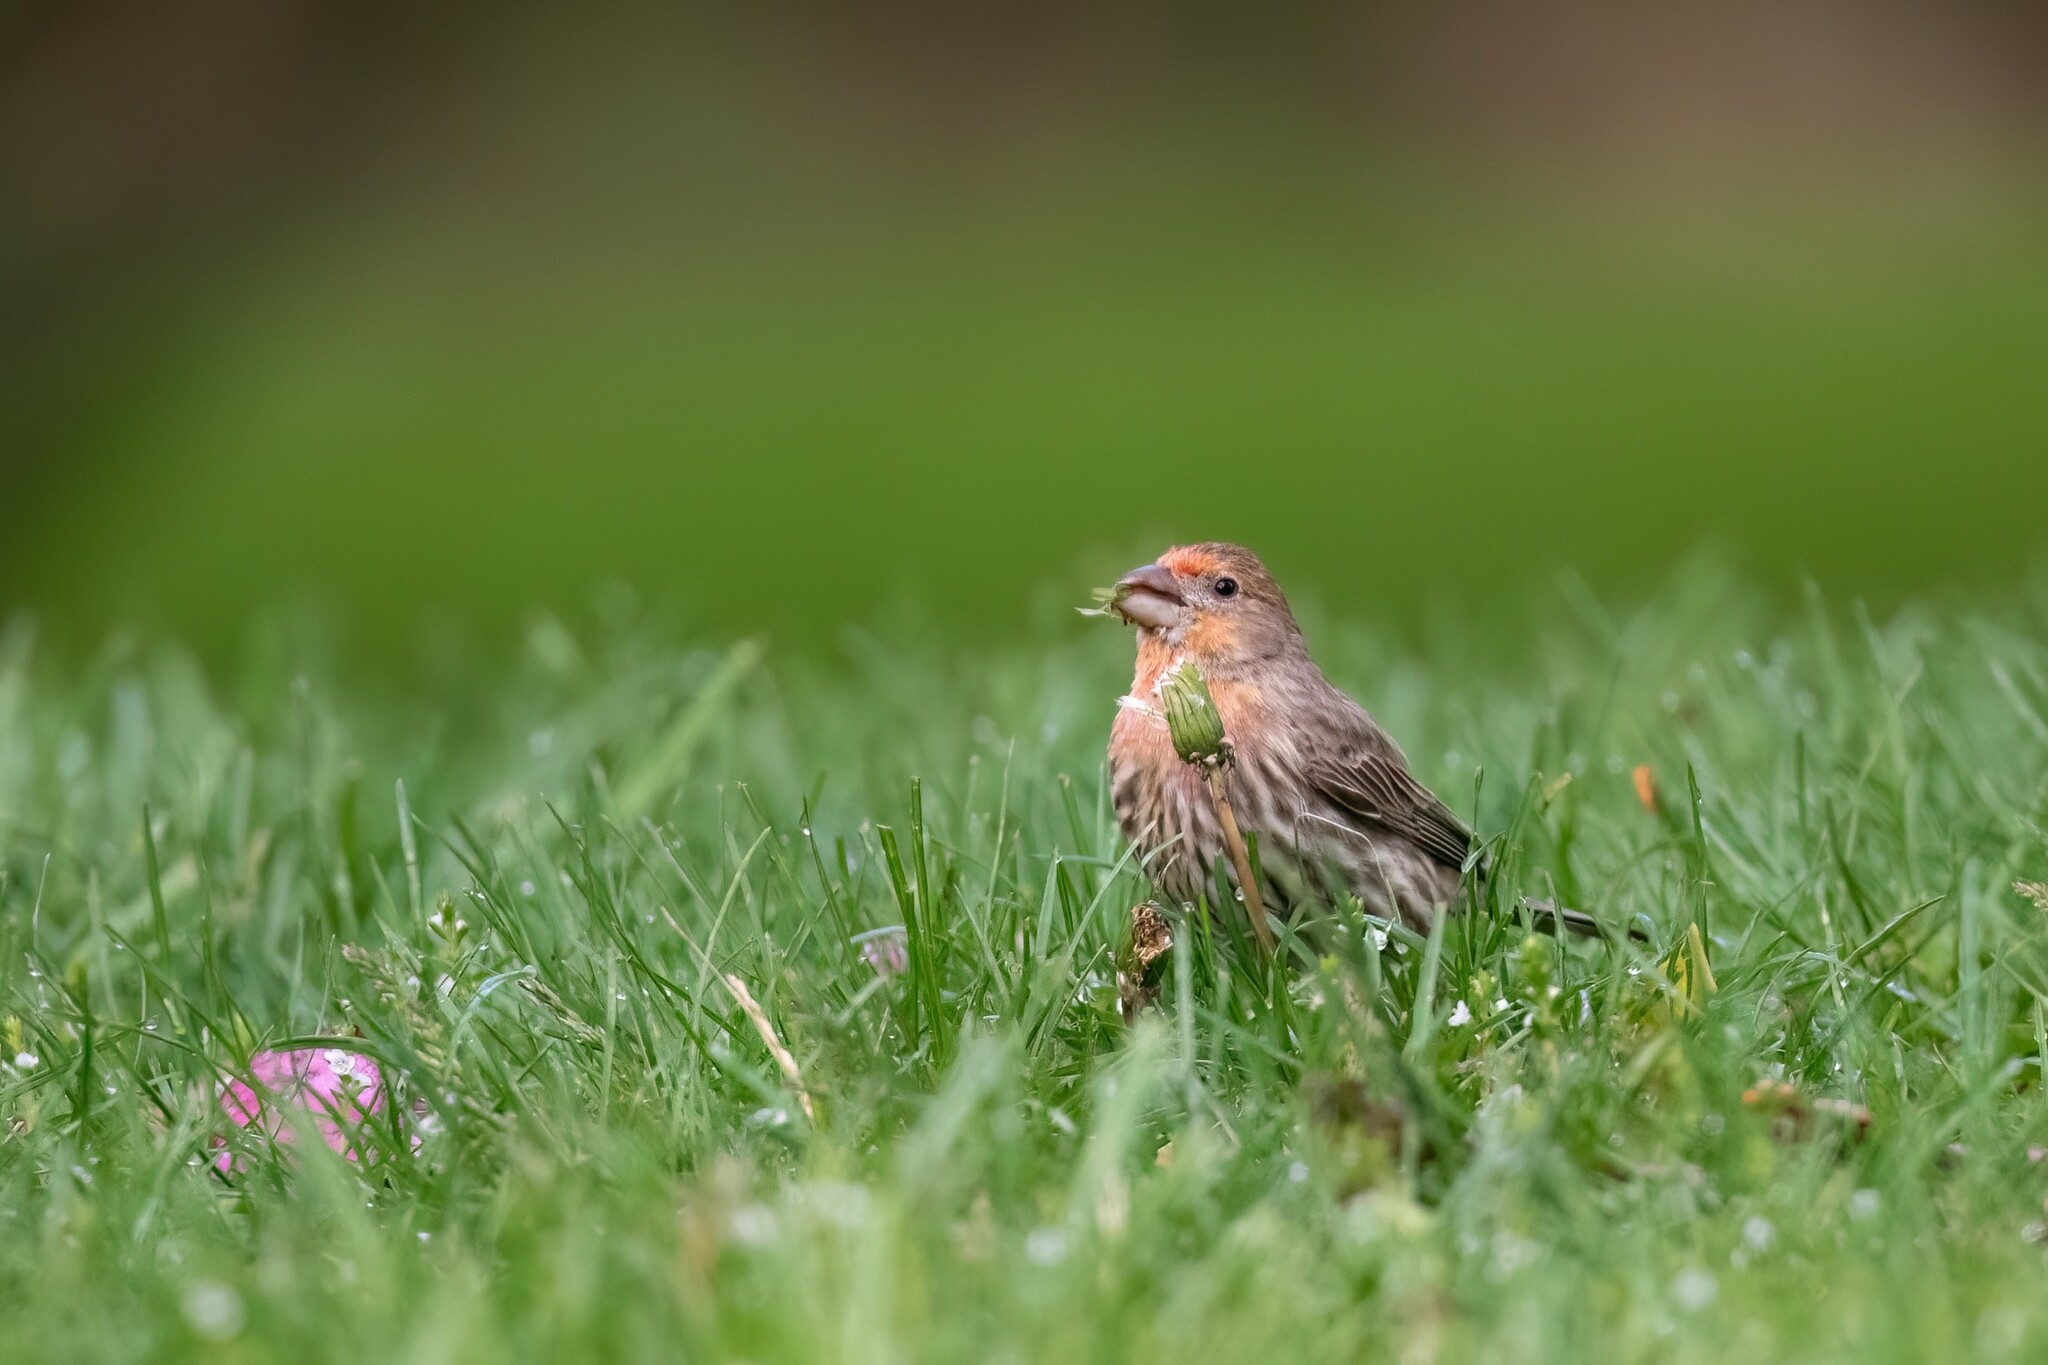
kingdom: Animalia
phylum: Chordata
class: Aves
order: Passeriformes
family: Fringillidae
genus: Haemorhous
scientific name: Haemorhous mexicanus
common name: House finch
